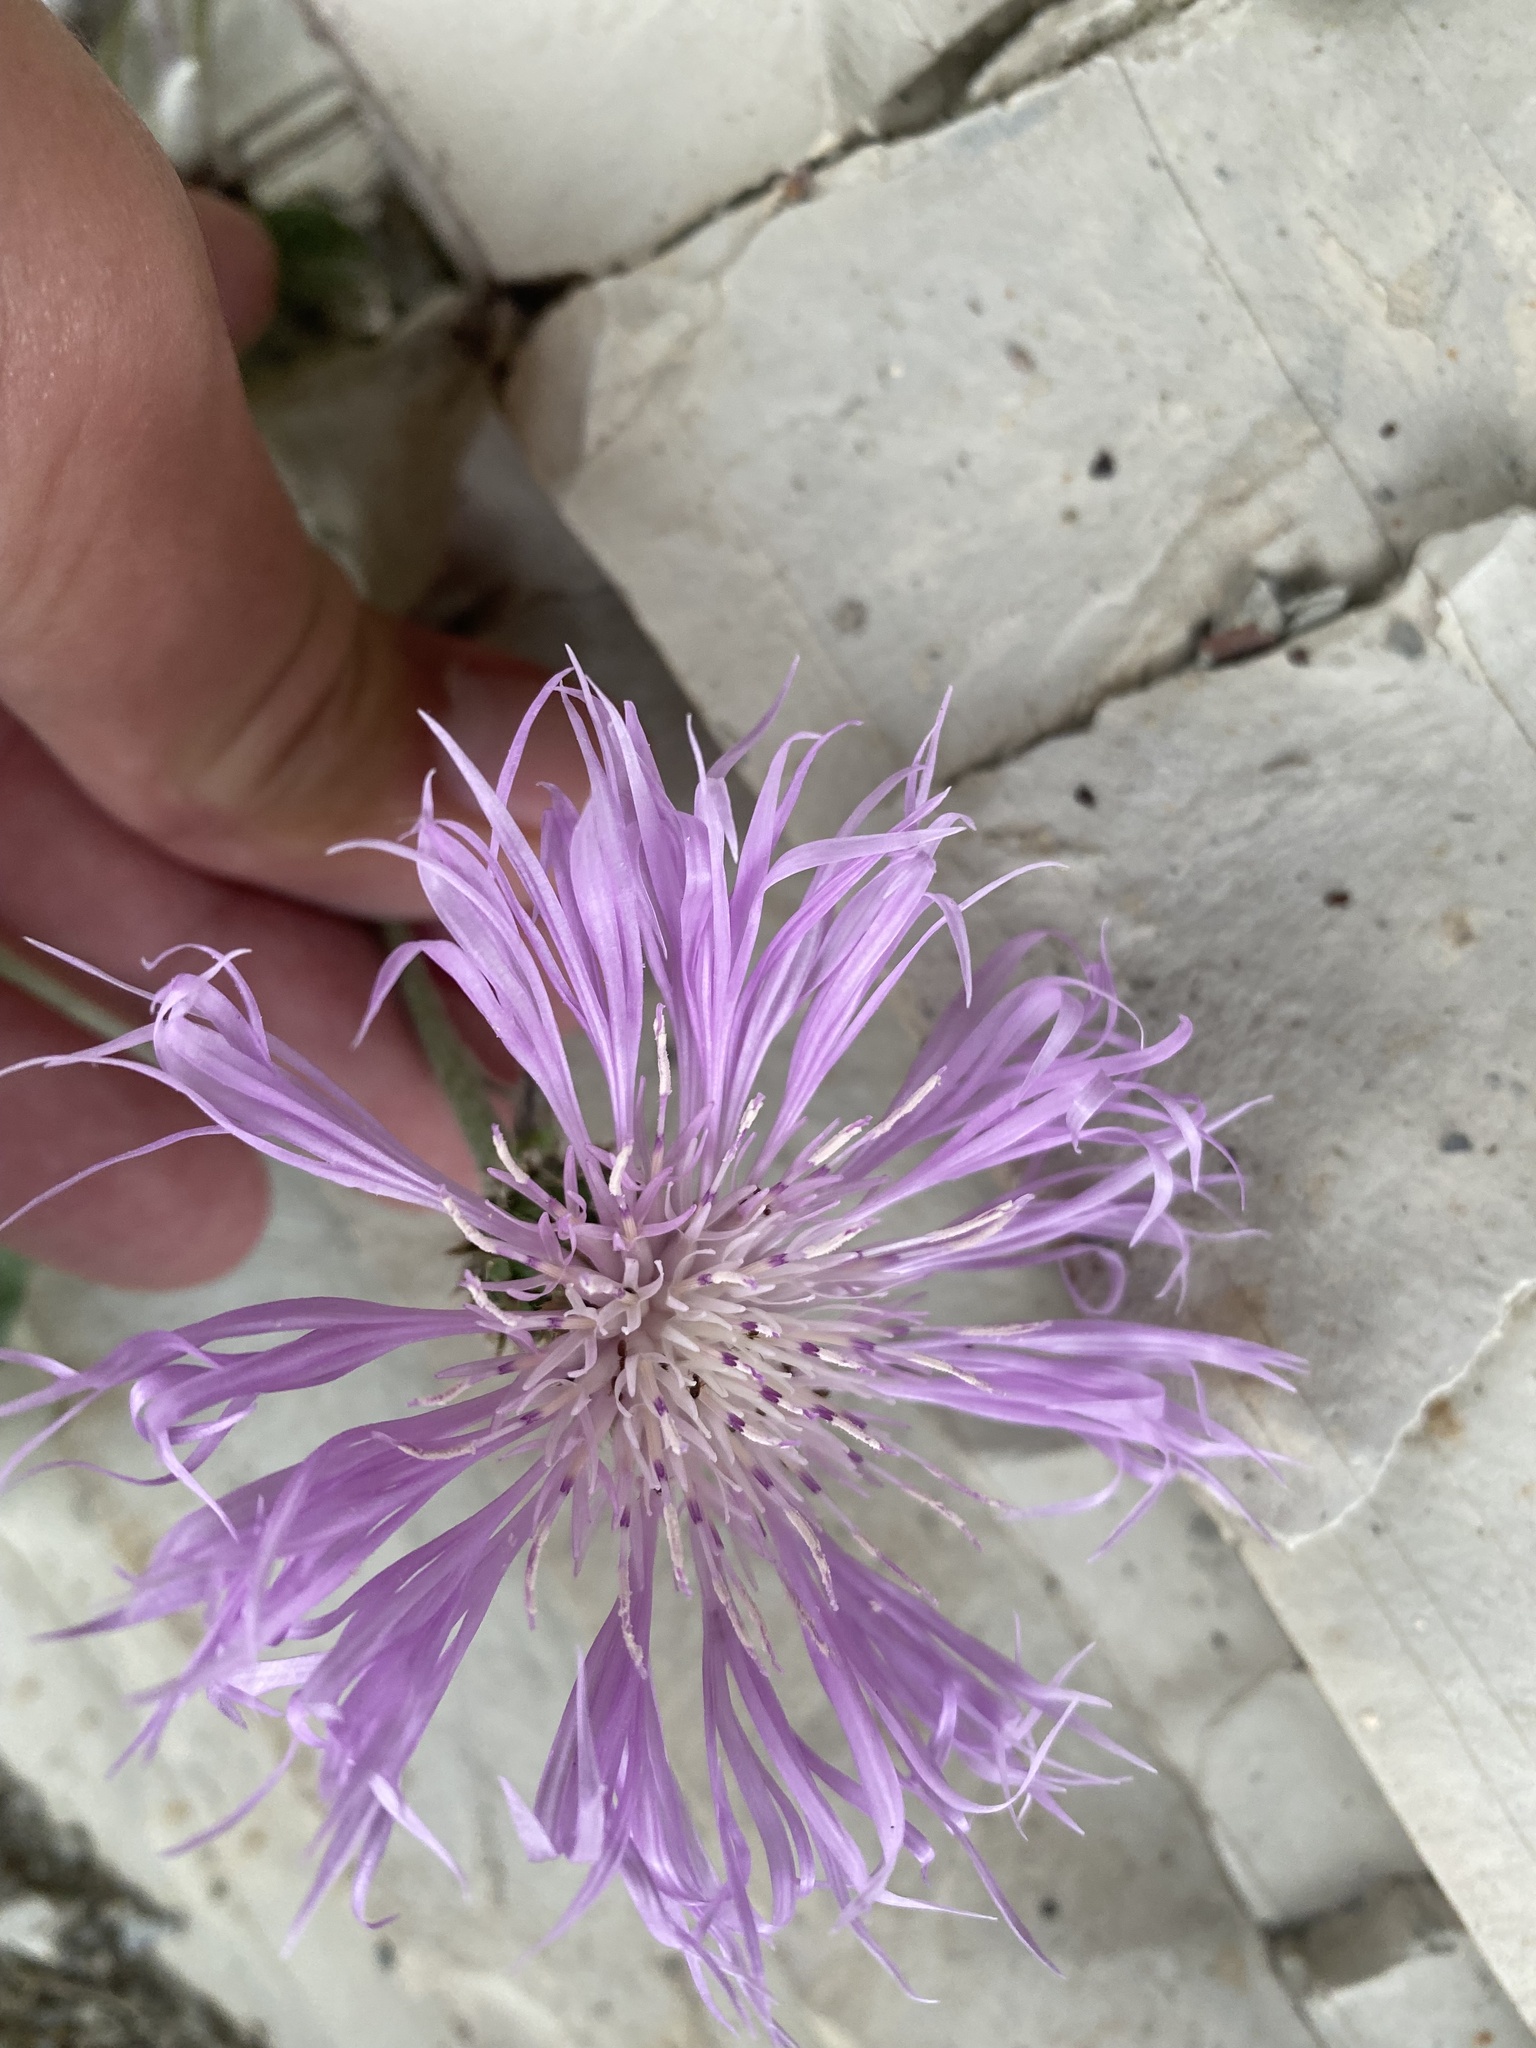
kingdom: Plantae
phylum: Tracheophyta
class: Magnoliopsida
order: Asterales
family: Asteraceae
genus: Psephellus
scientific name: Psephellus declinatus
